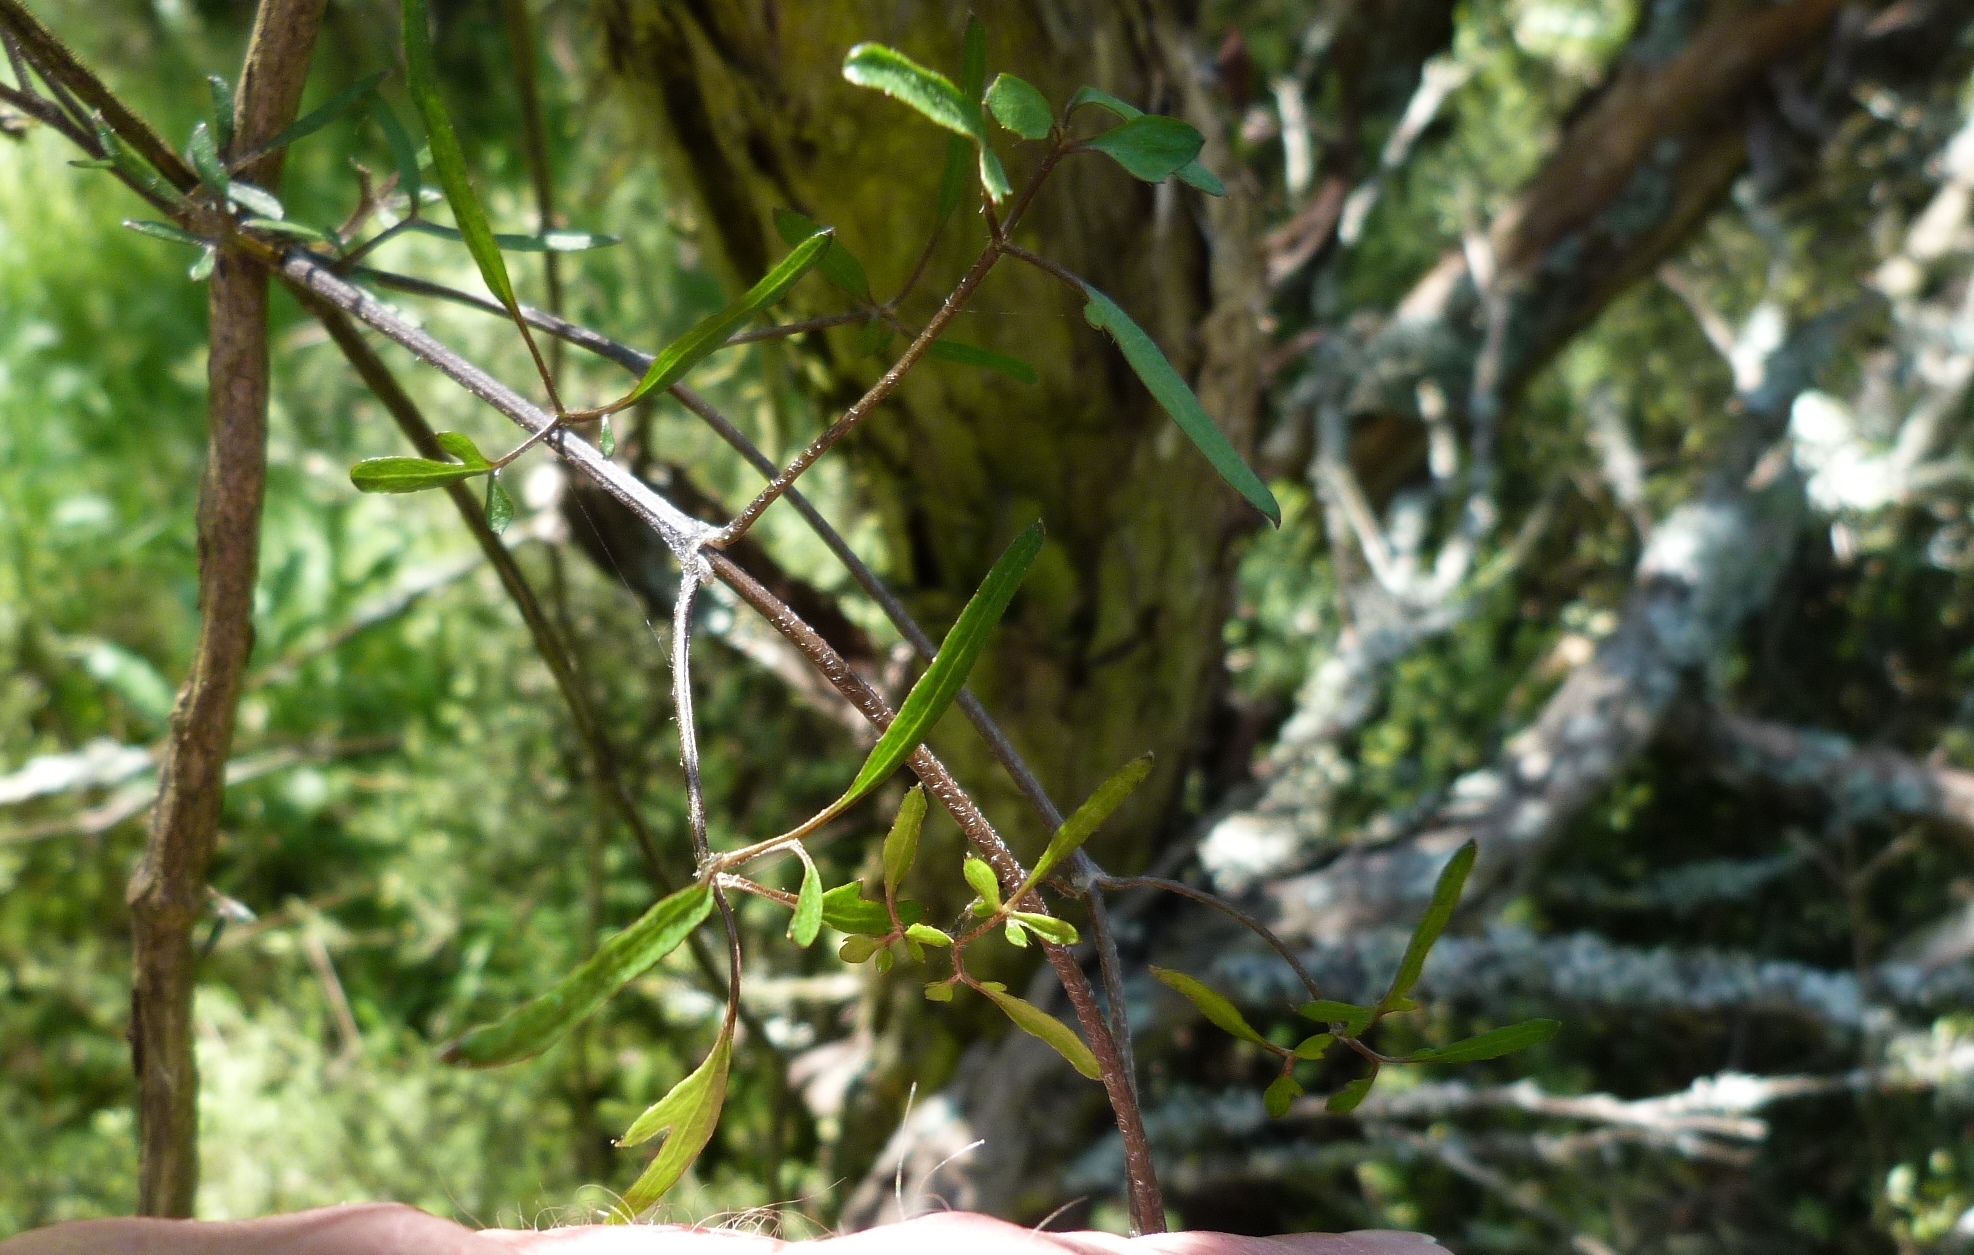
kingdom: Plantae
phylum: Tracheophyta
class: Magnoliopsida
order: Ranunculales
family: Ranunculaceae
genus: Clematis
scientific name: Clematis quadribracteolata
